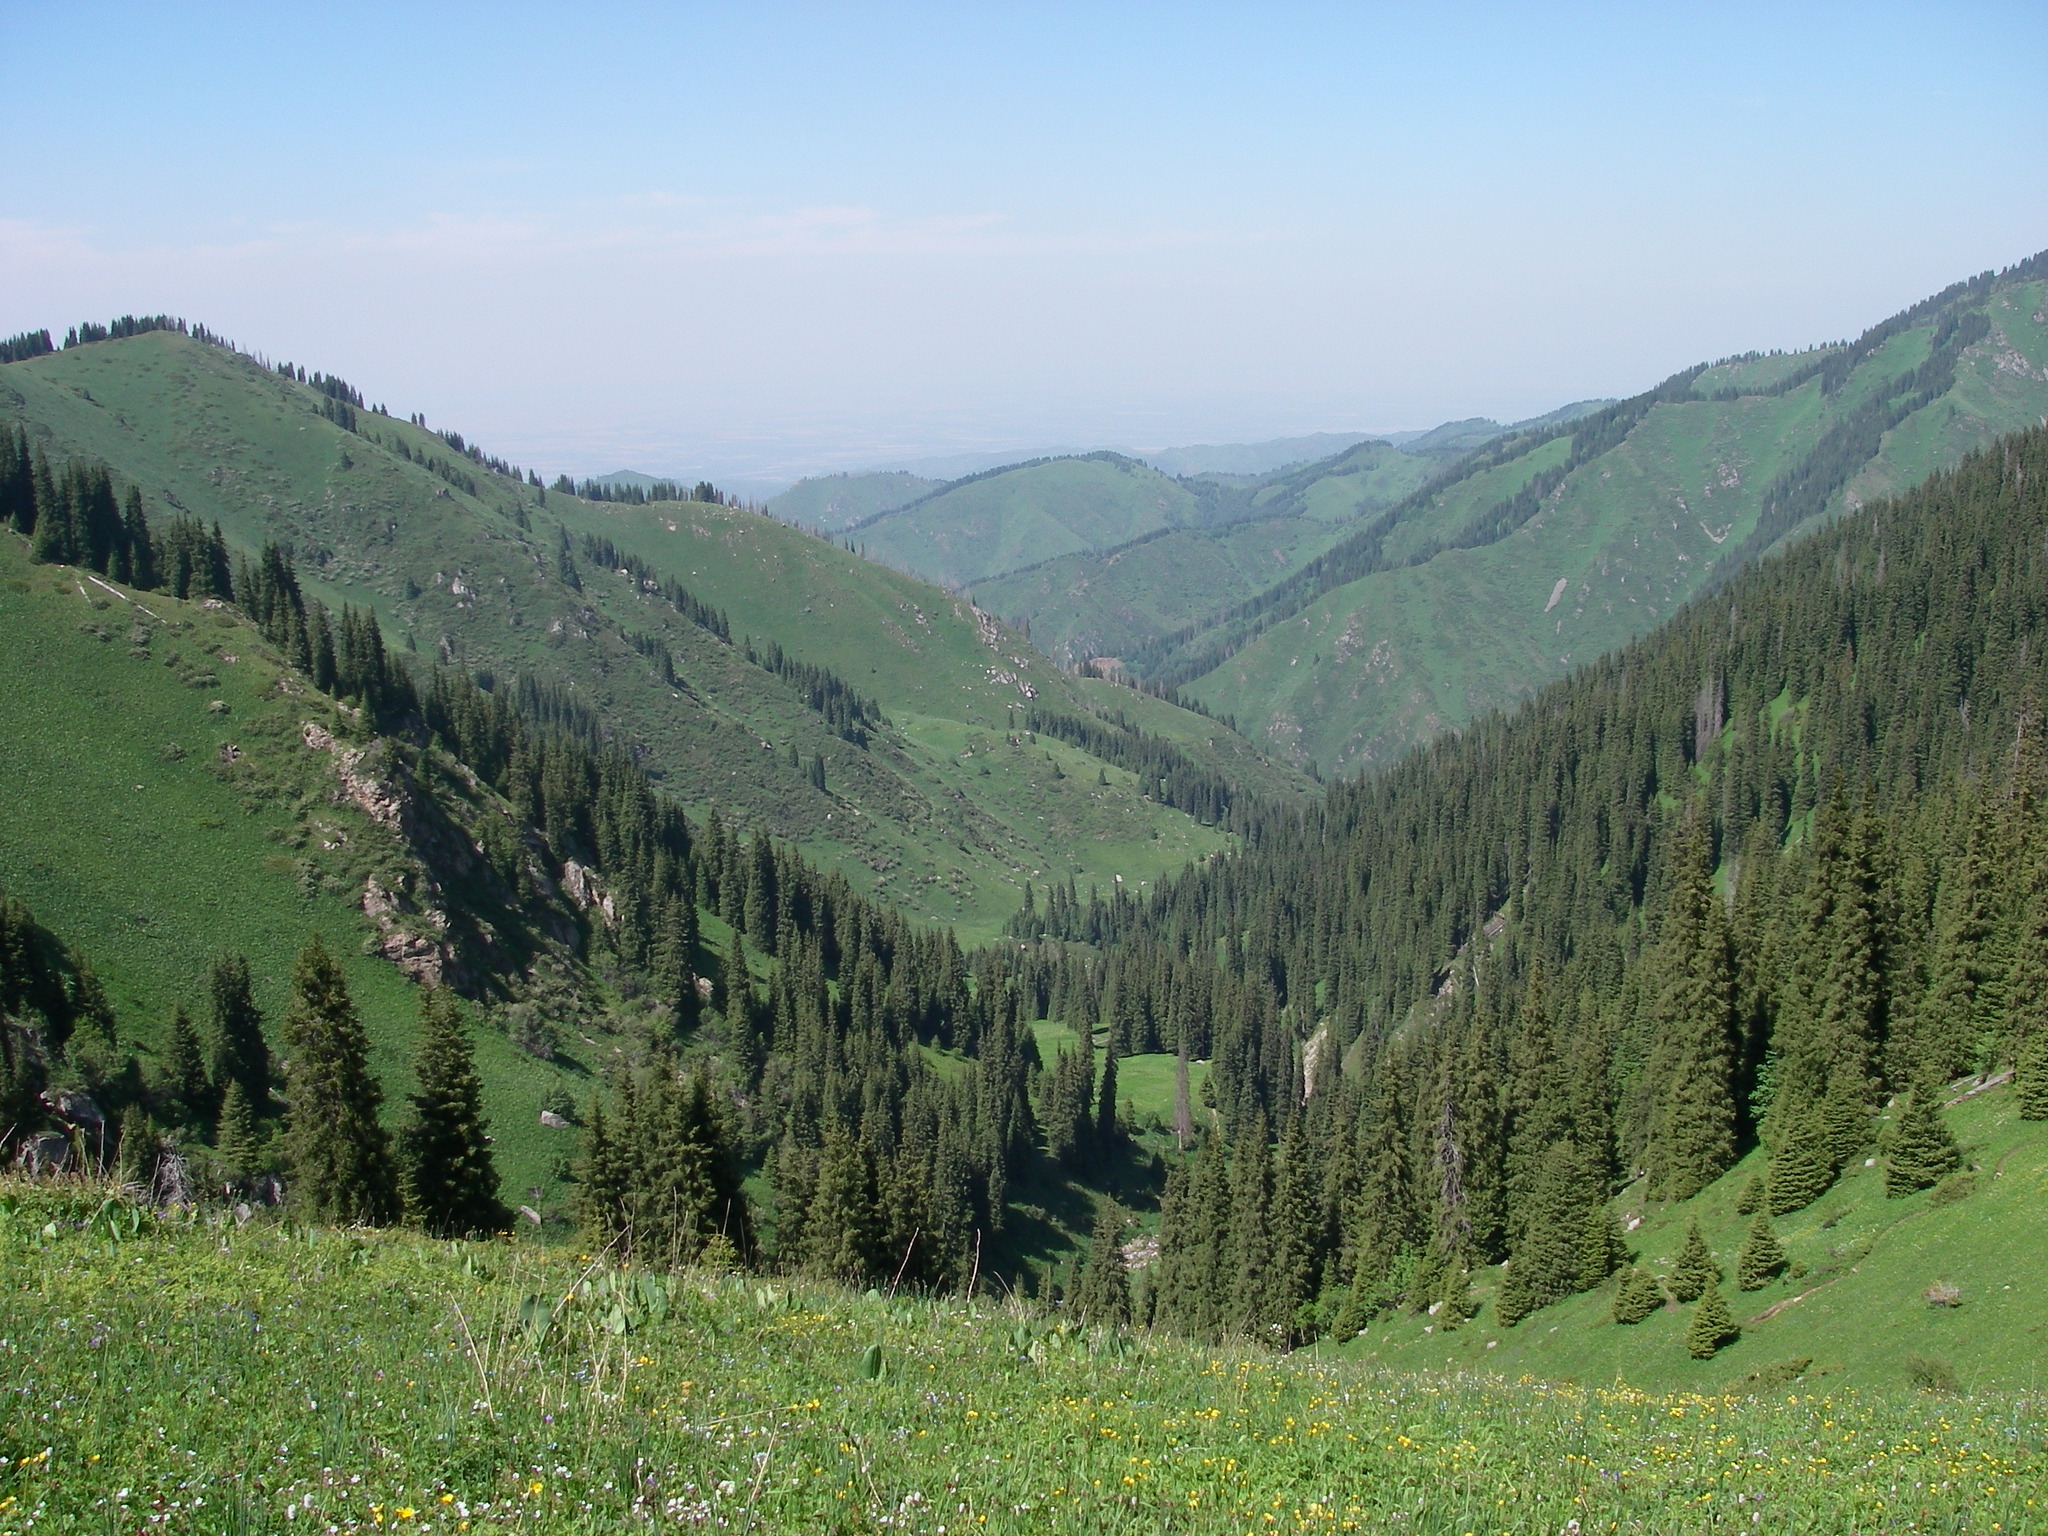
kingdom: Plantae
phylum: Tracheophyta
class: Pinopsida
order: Pinales
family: Pinaceae
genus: Picea
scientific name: Picea schrenkiana
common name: Asian spruce
